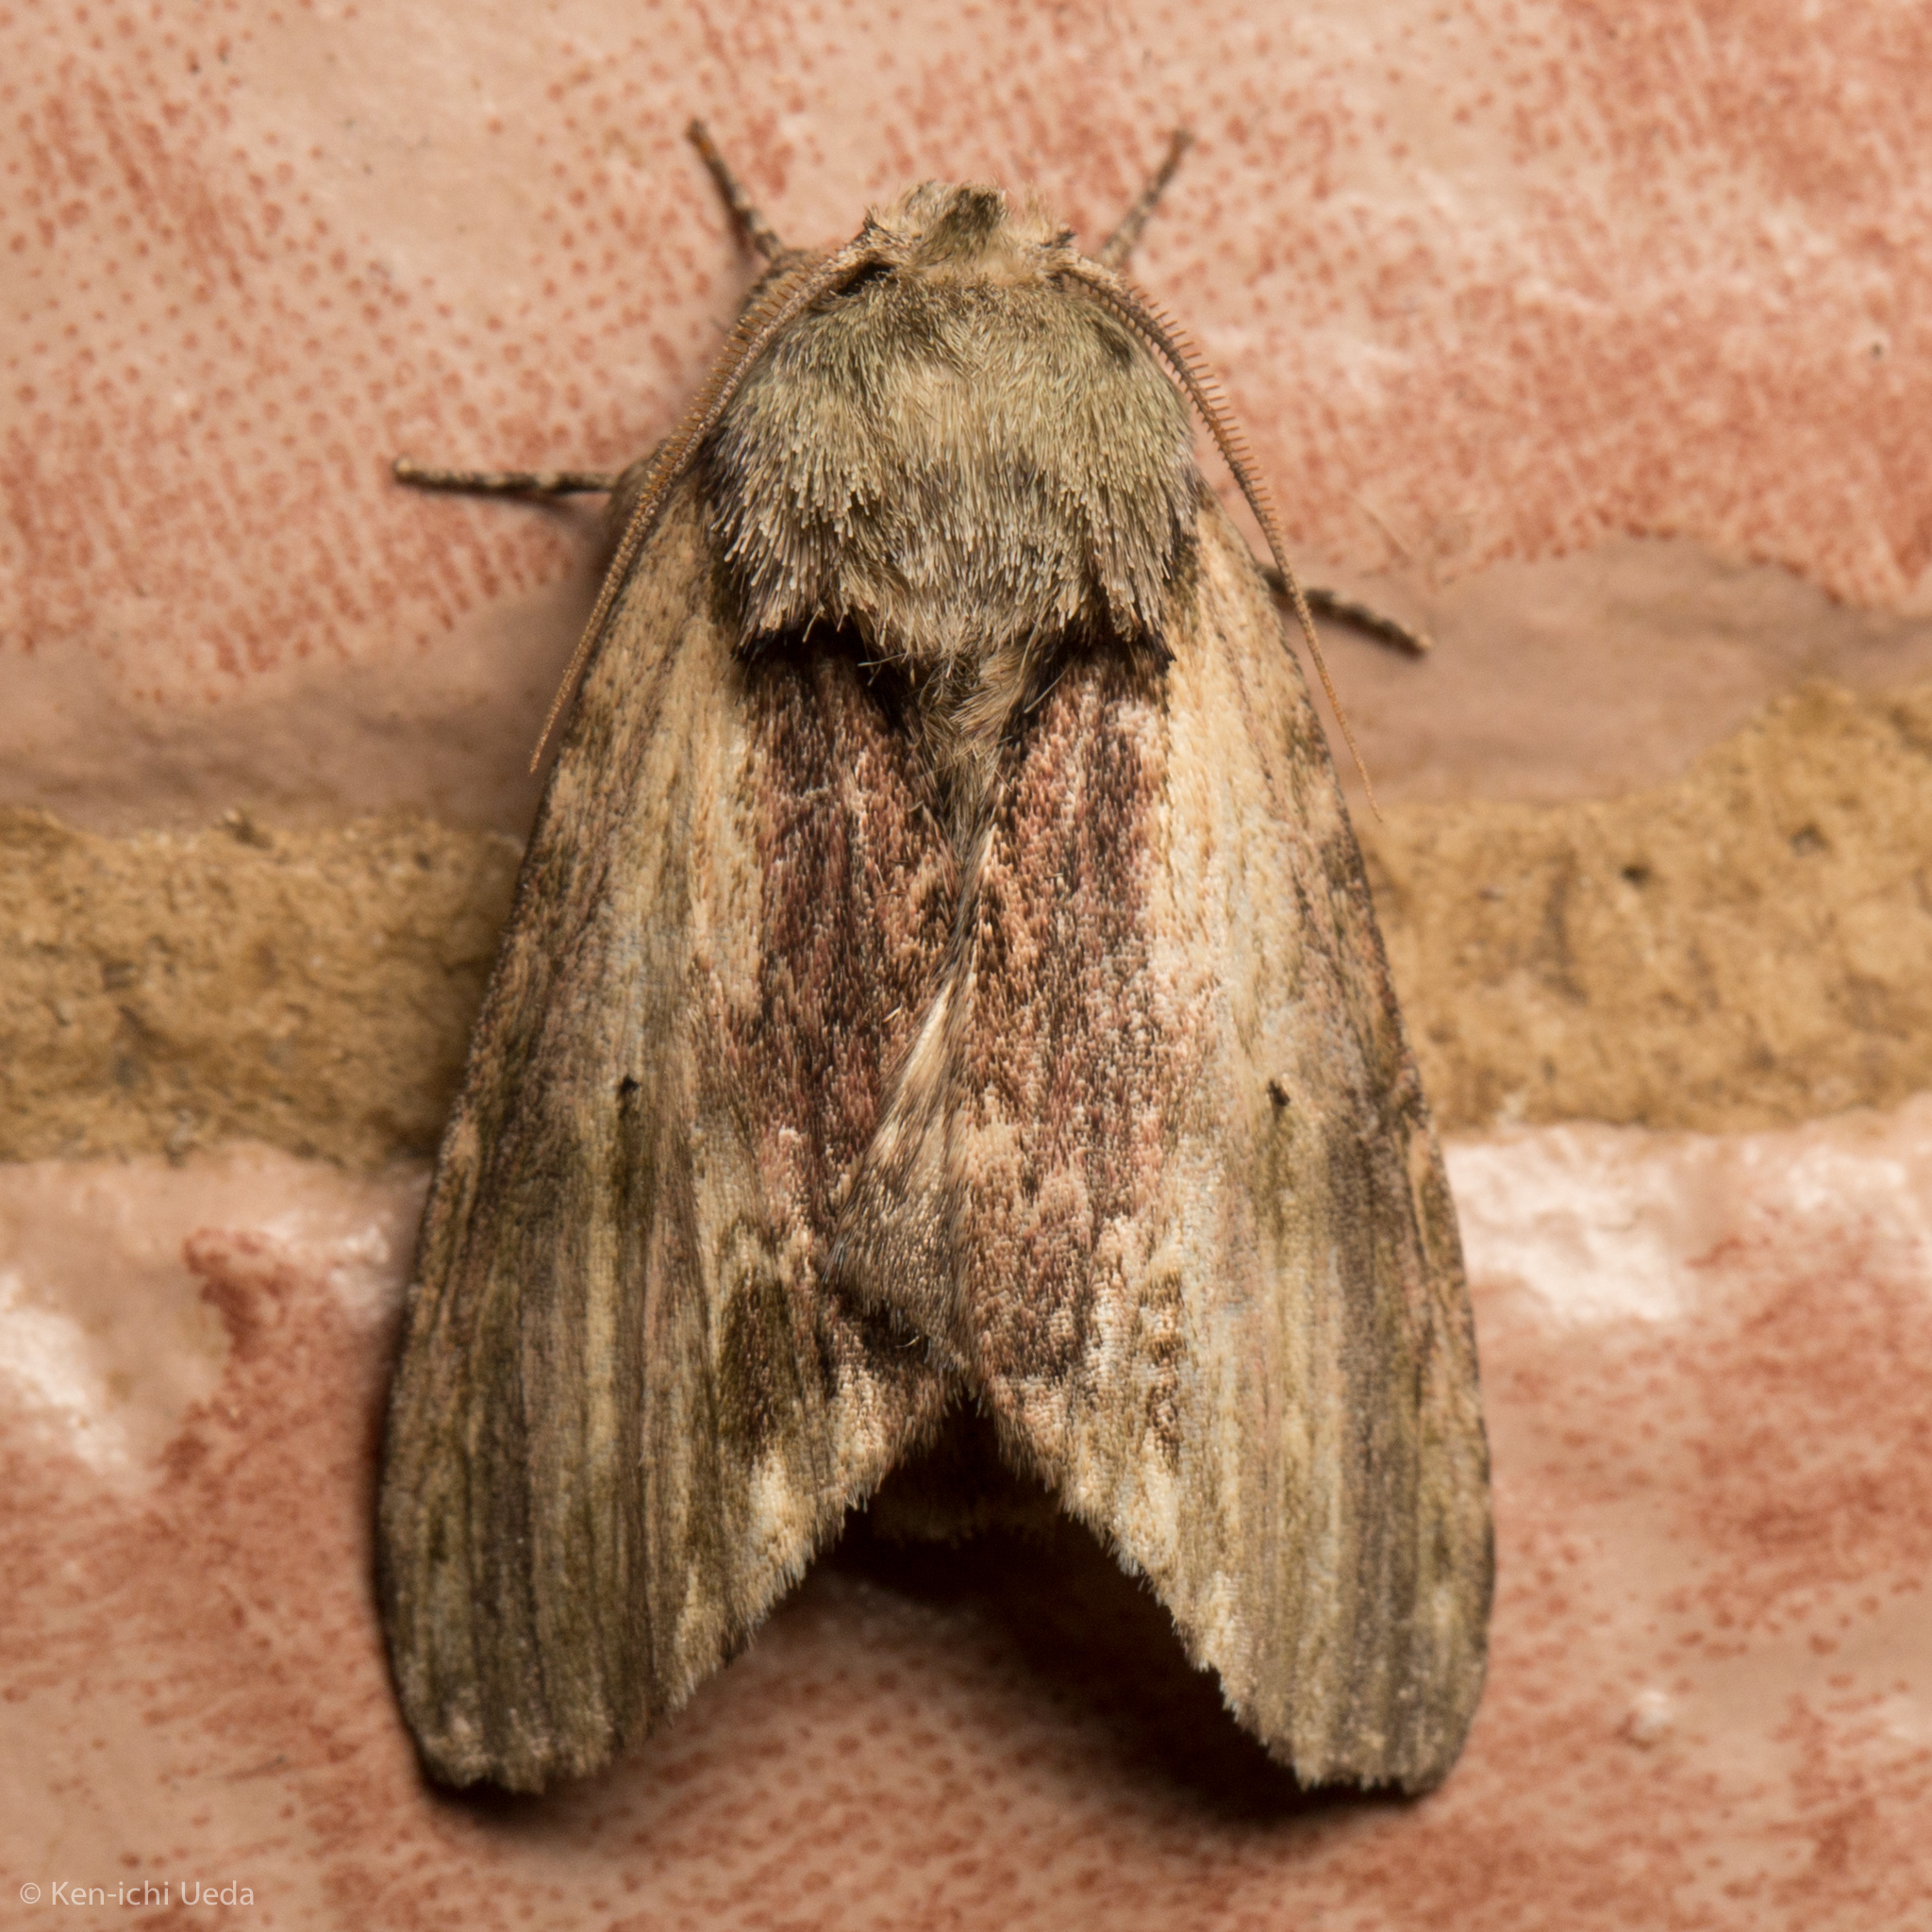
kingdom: Animalia
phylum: Arthropoda
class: Insecta
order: Lepidoptera
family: Notodontidae
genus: Schizura
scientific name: Schizura
